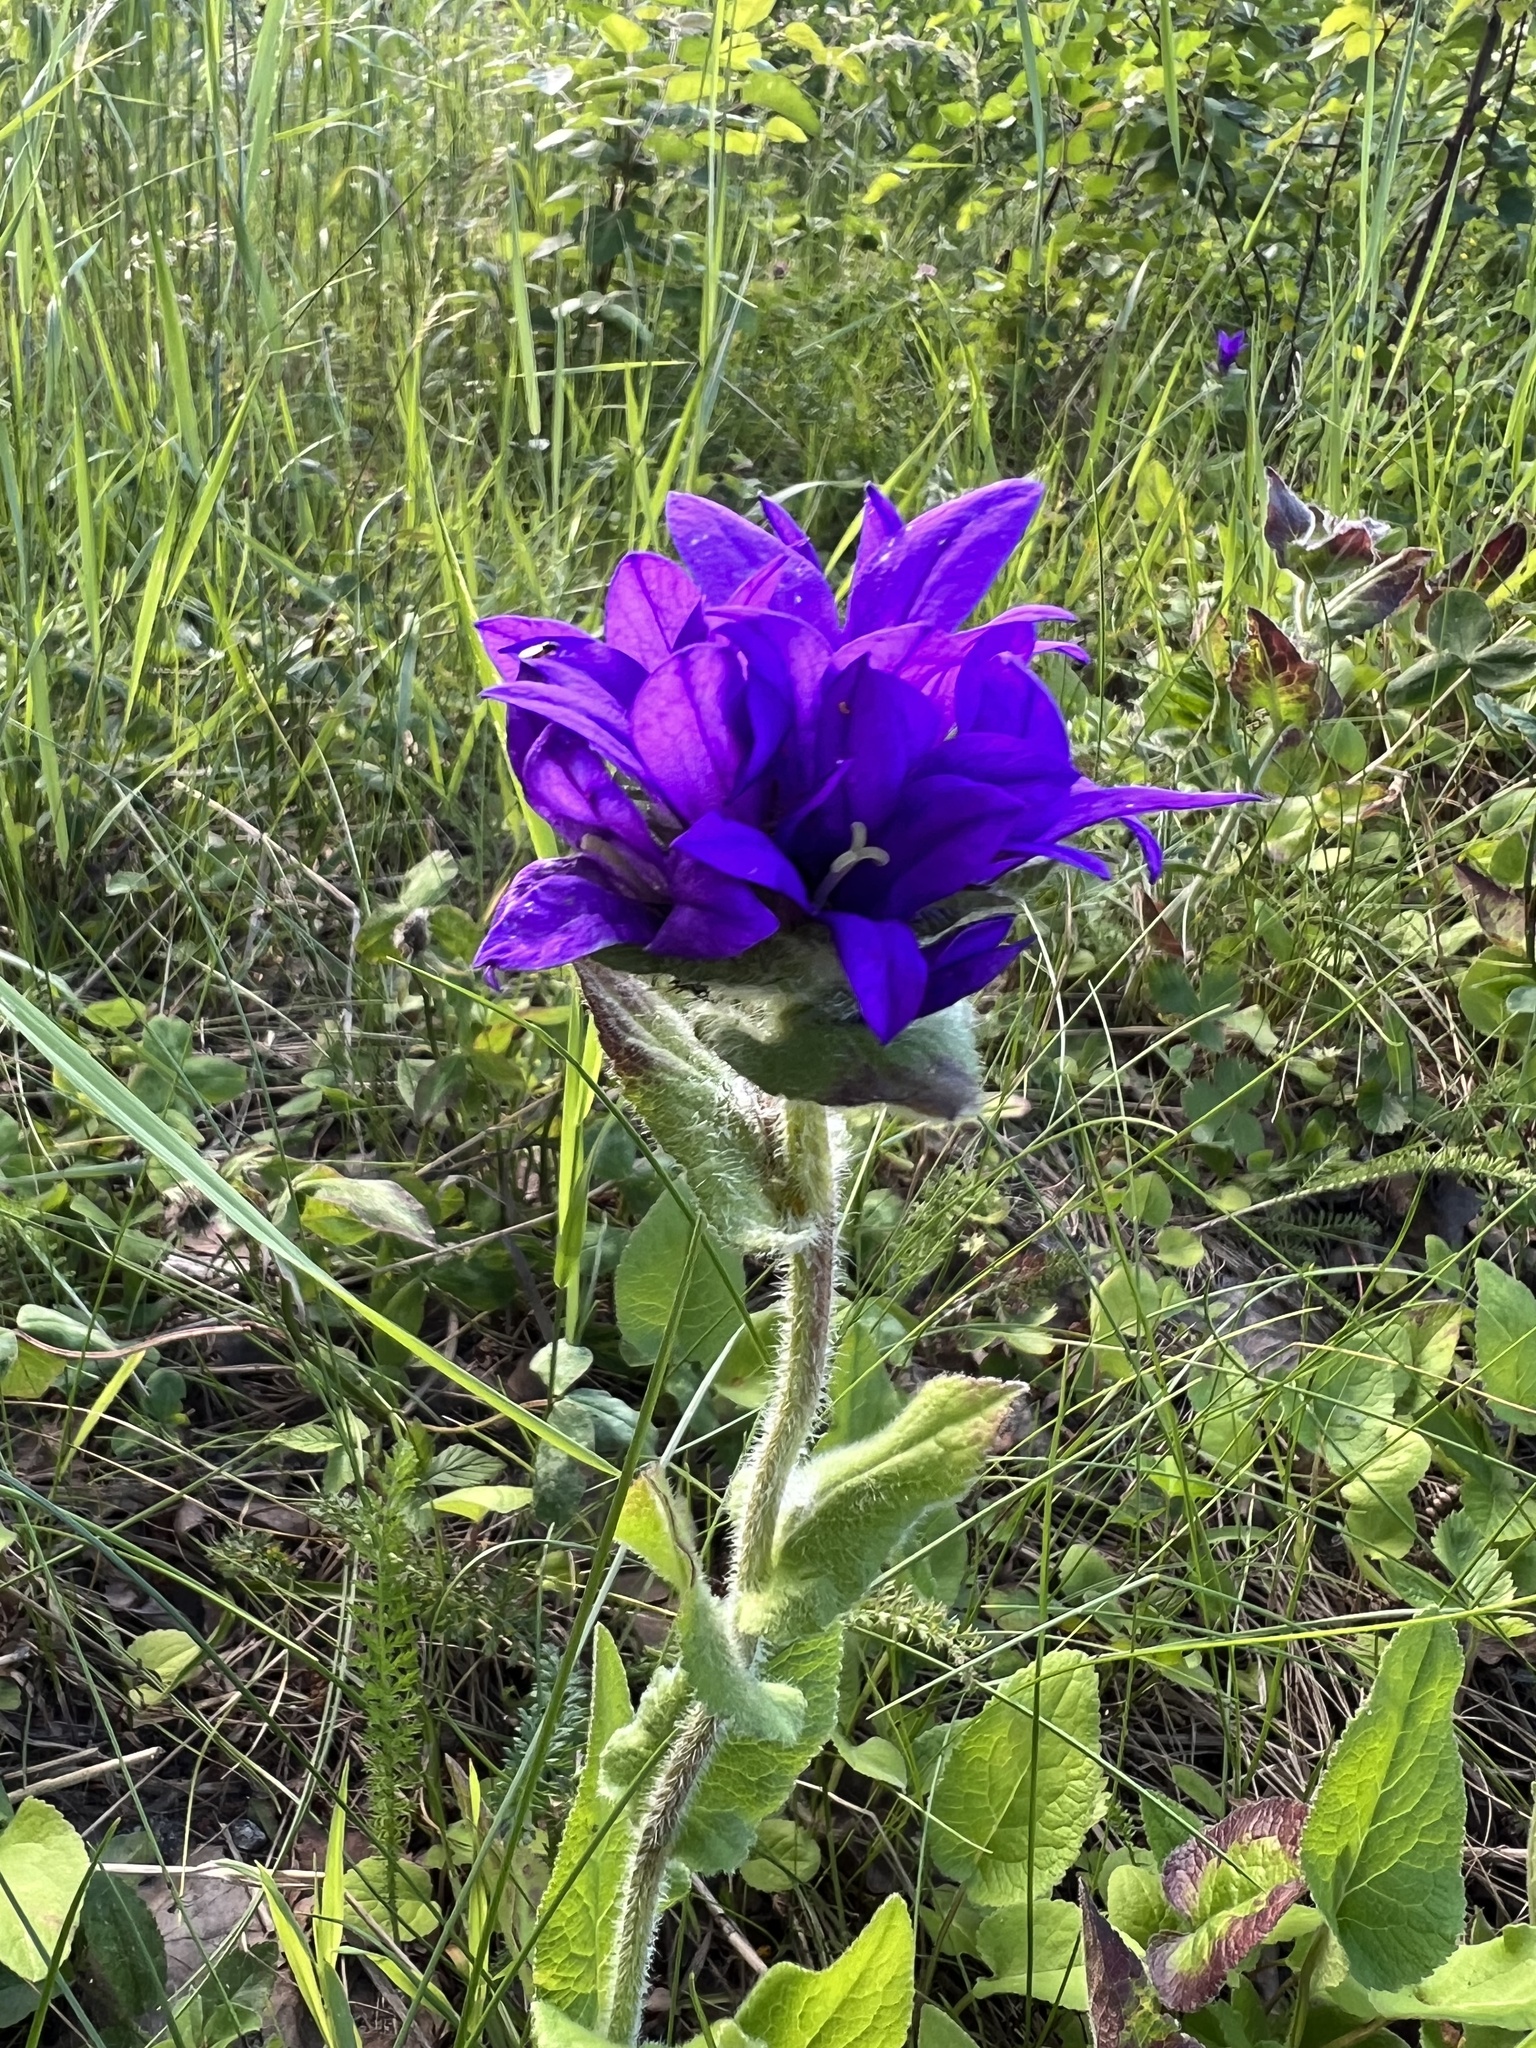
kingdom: Plantae
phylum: Tracheophyta
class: Magnoliopsida
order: Asterales
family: Campanulaceae
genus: Campanula
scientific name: Campanula glomerata
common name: Clustered bellflower
